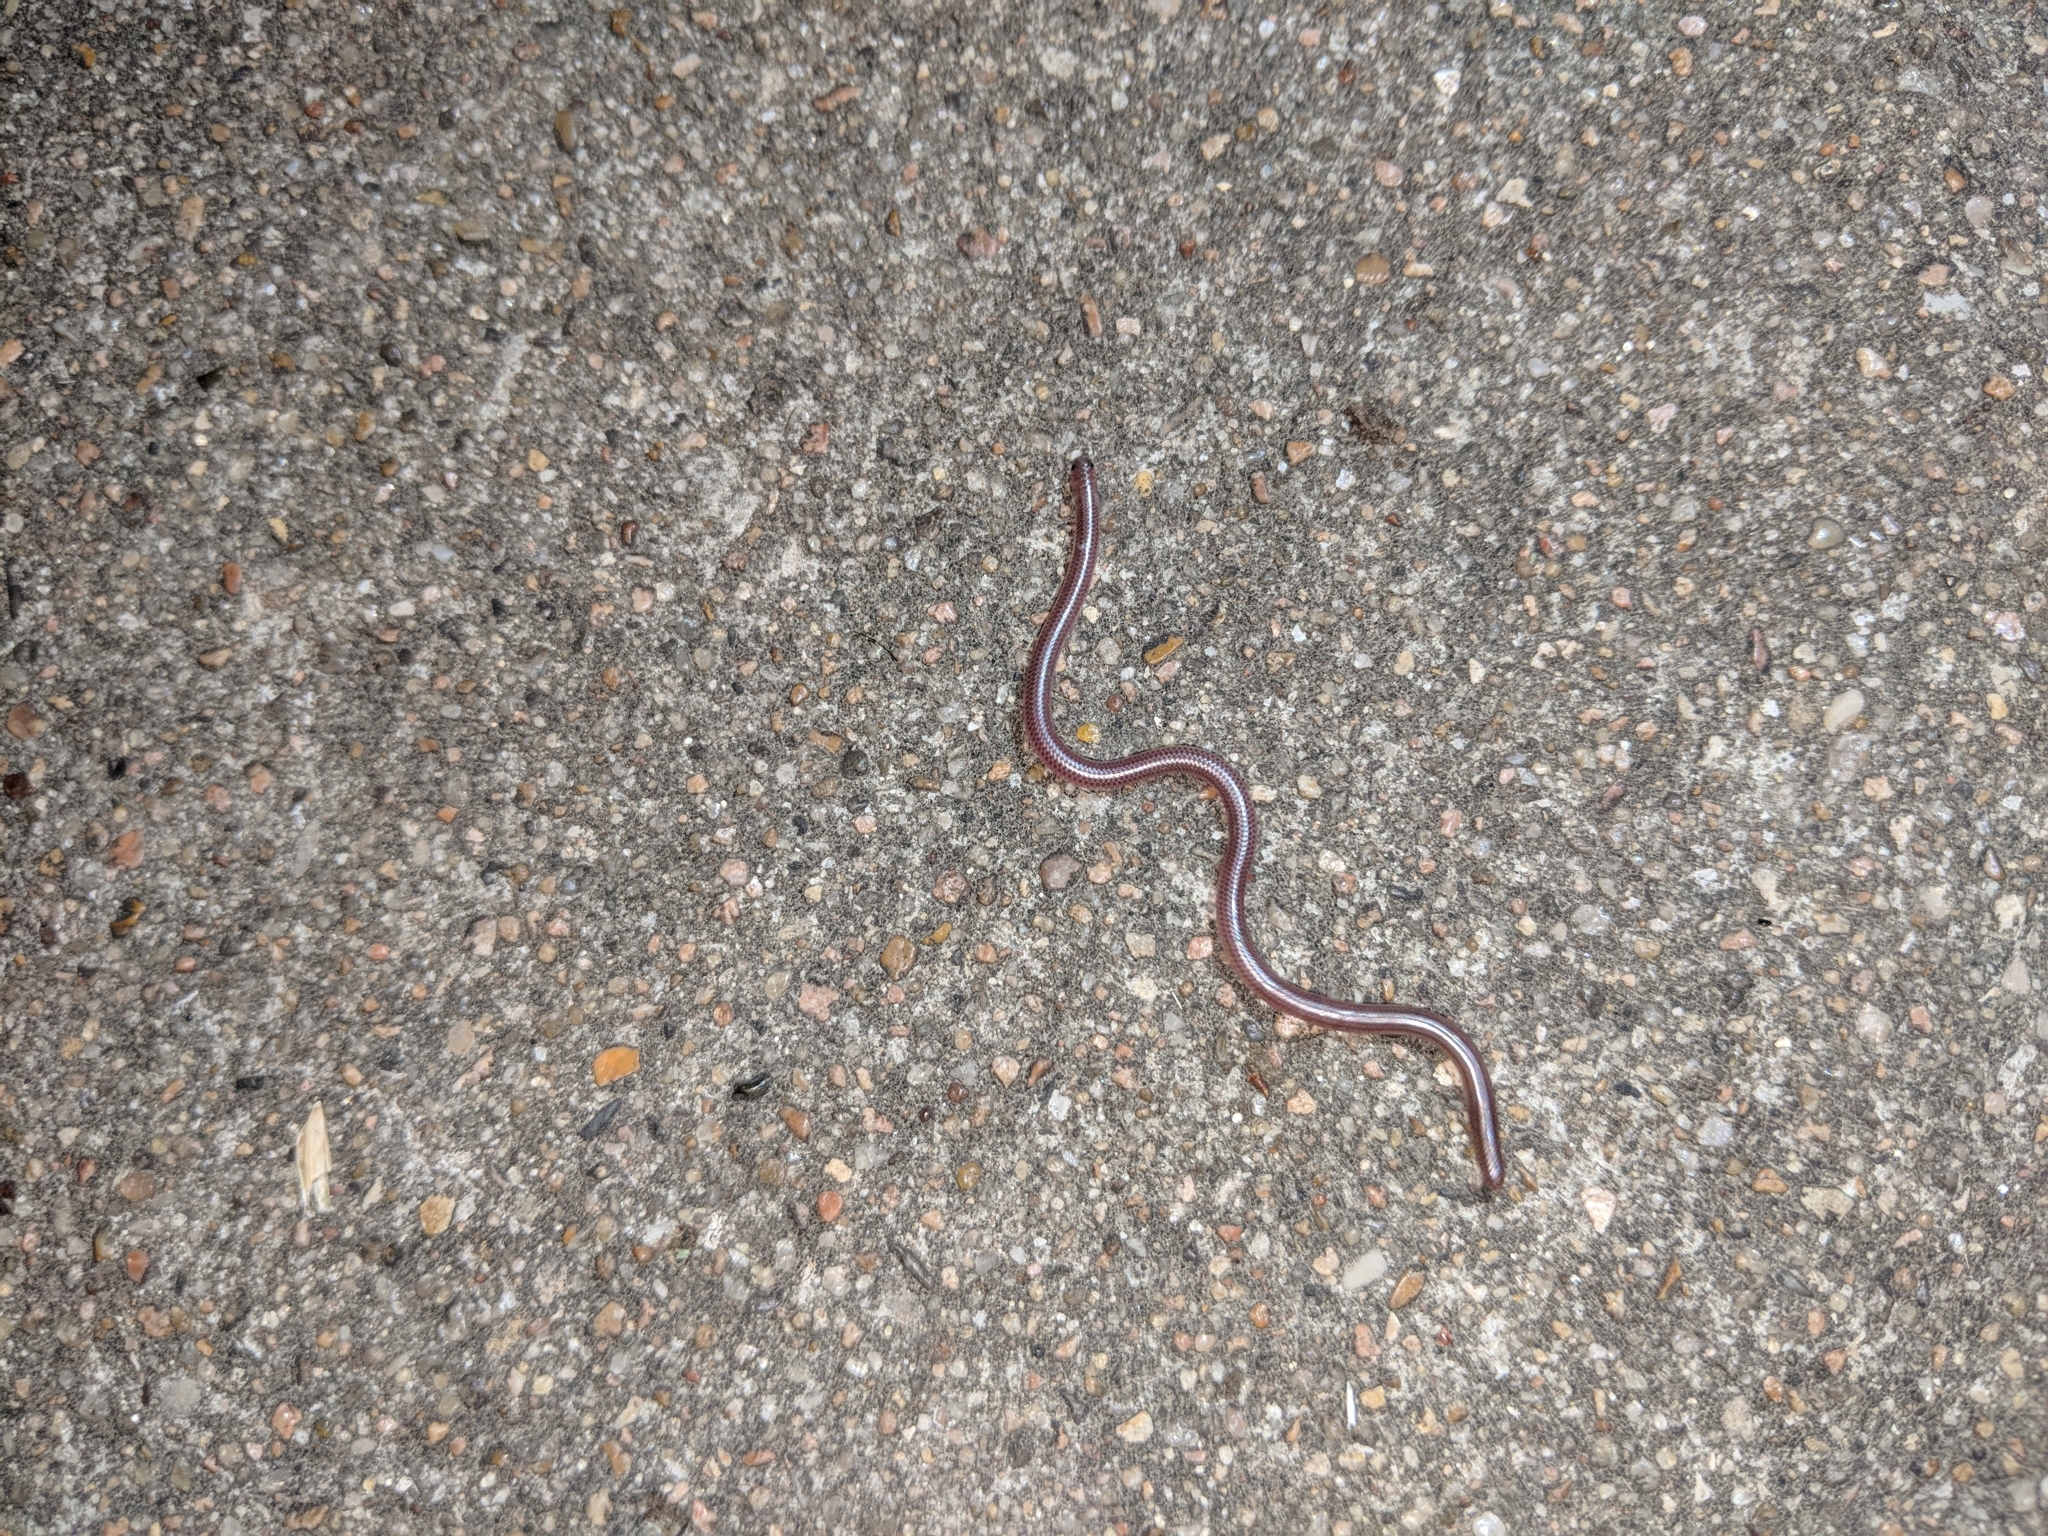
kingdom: Animalia
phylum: Chordata
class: Squamata
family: Leptotyphlopidae
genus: Rena
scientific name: Rena dulcis
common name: Texas blind snake
